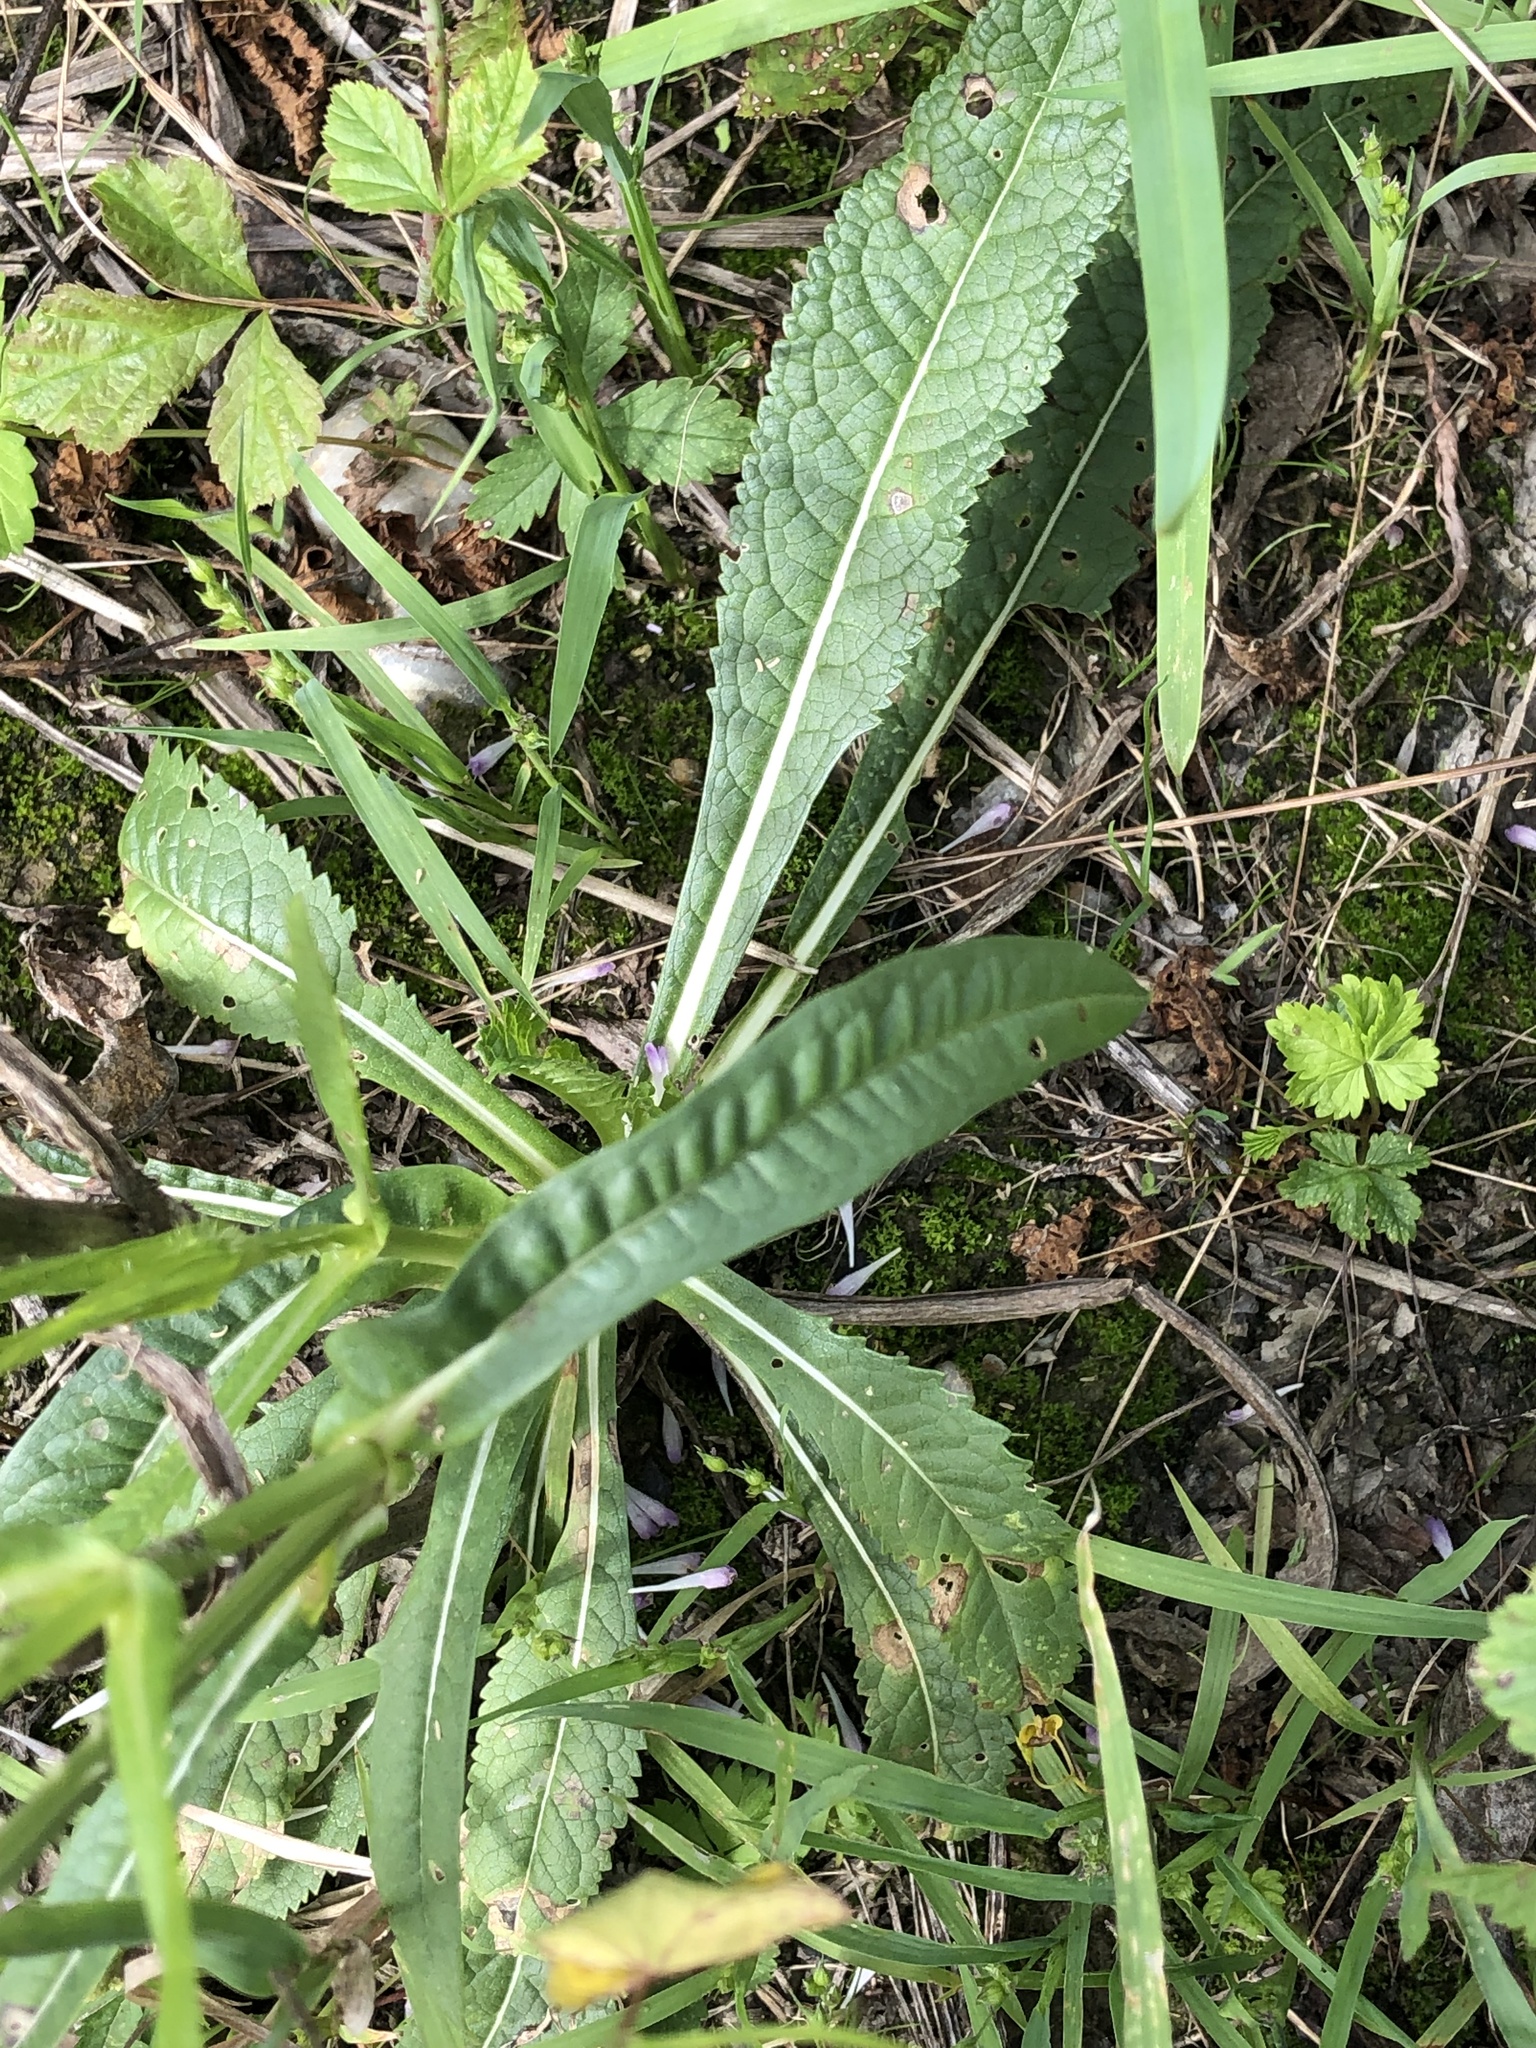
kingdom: Plantae
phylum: Tracheophyta
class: Magnoliopsida
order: Dipsacales
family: Caprifoliaceae
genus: Dipsacus
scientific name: Dipsacus fullonum
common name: Teasel
